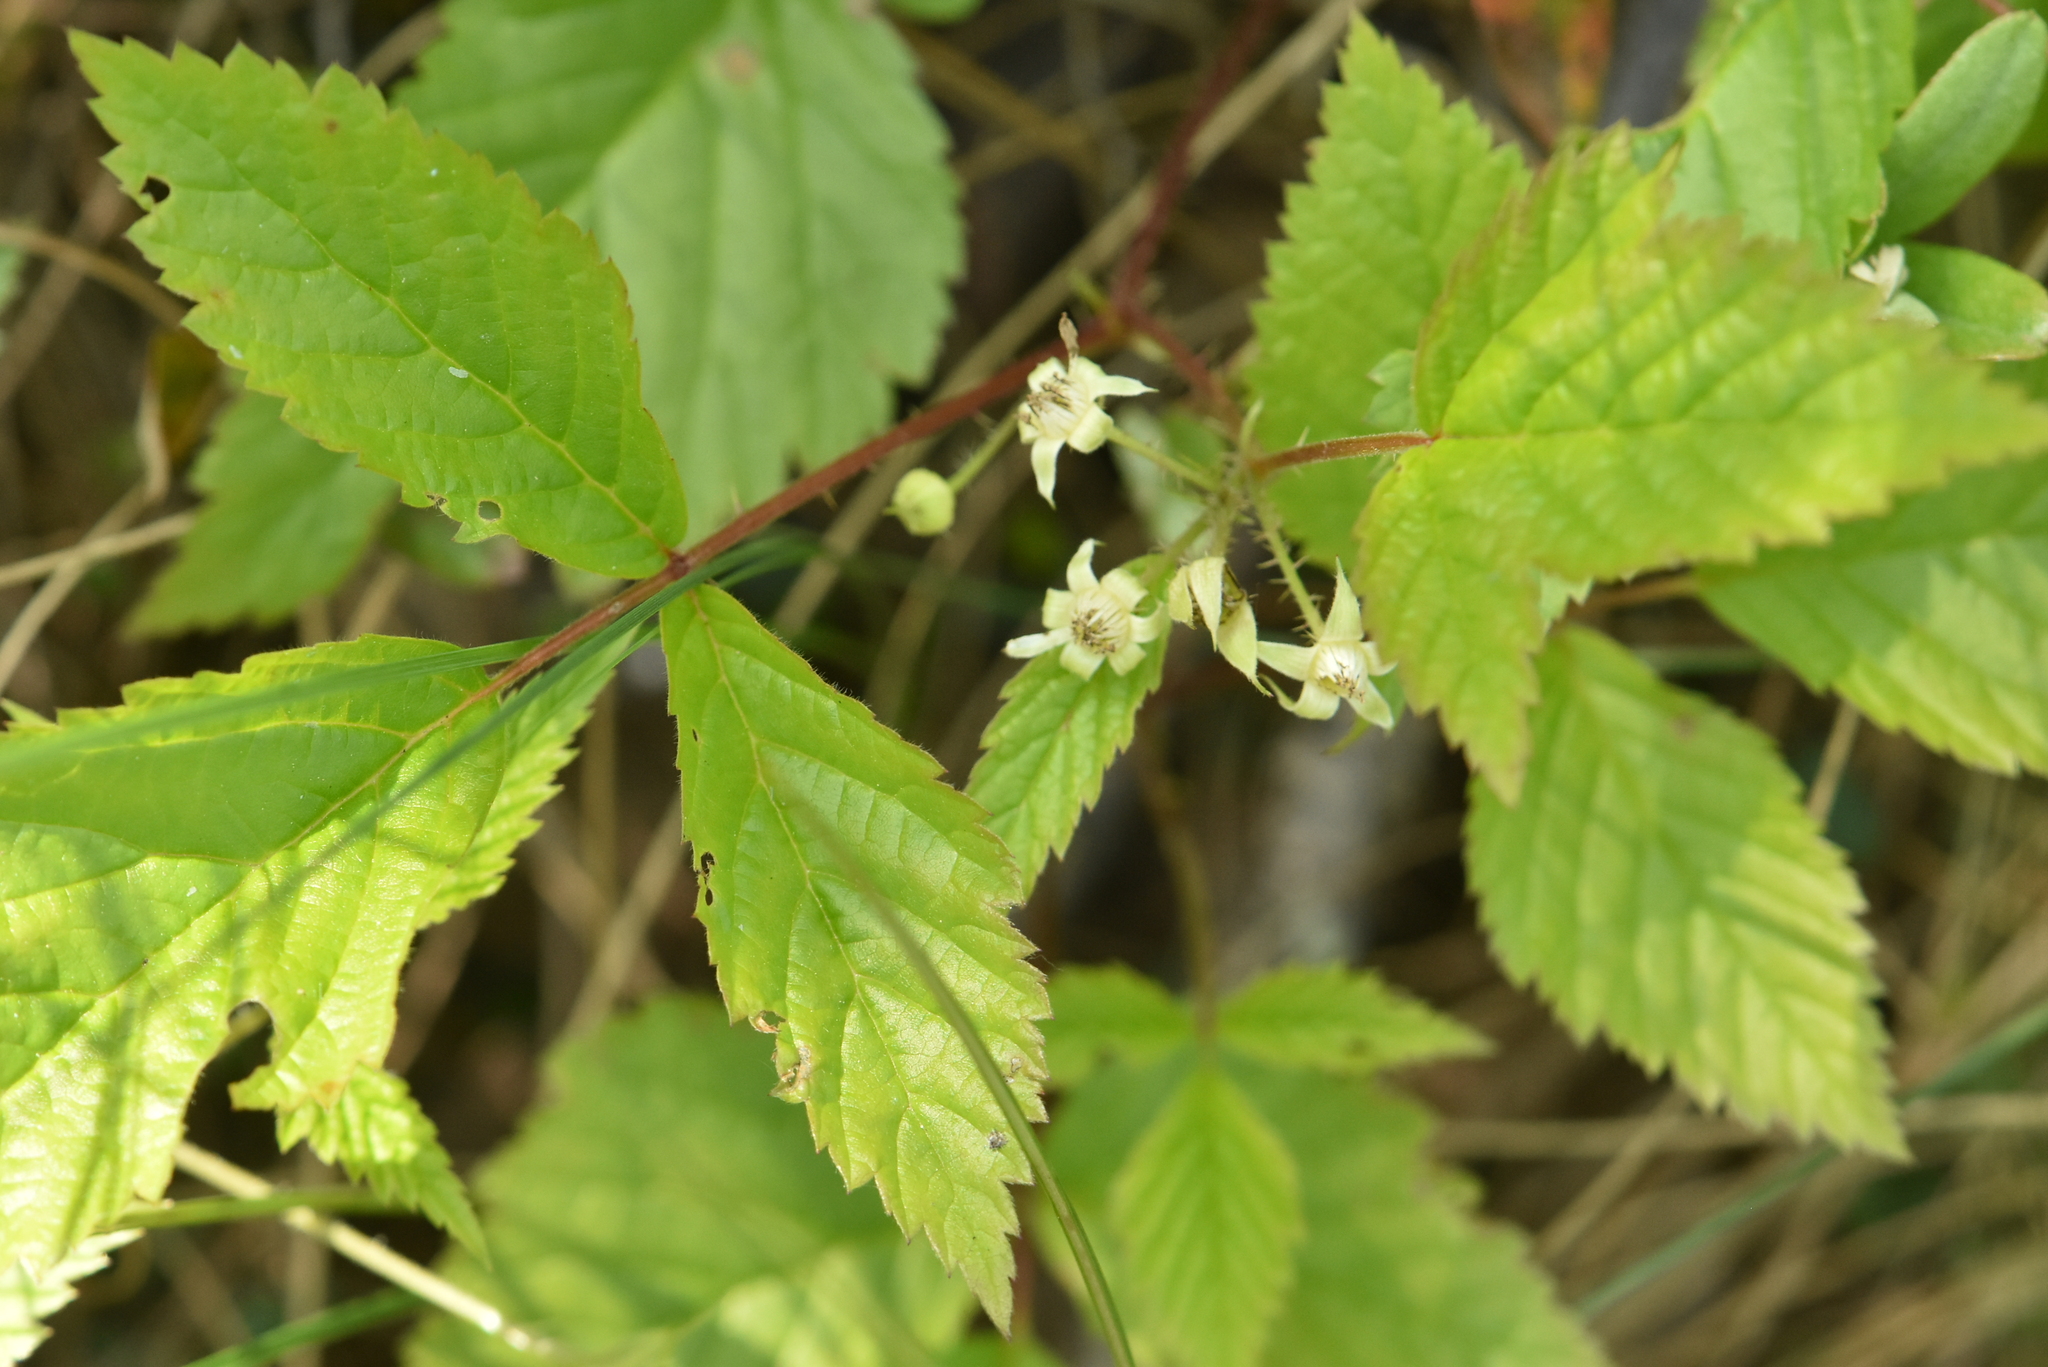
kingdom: Plantae
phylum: Tracheophyta
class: Magnoliopsida
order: Rosales
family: Rosaceae
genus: Rubus
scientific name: Rubus saxatilis
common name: Stone bramble
